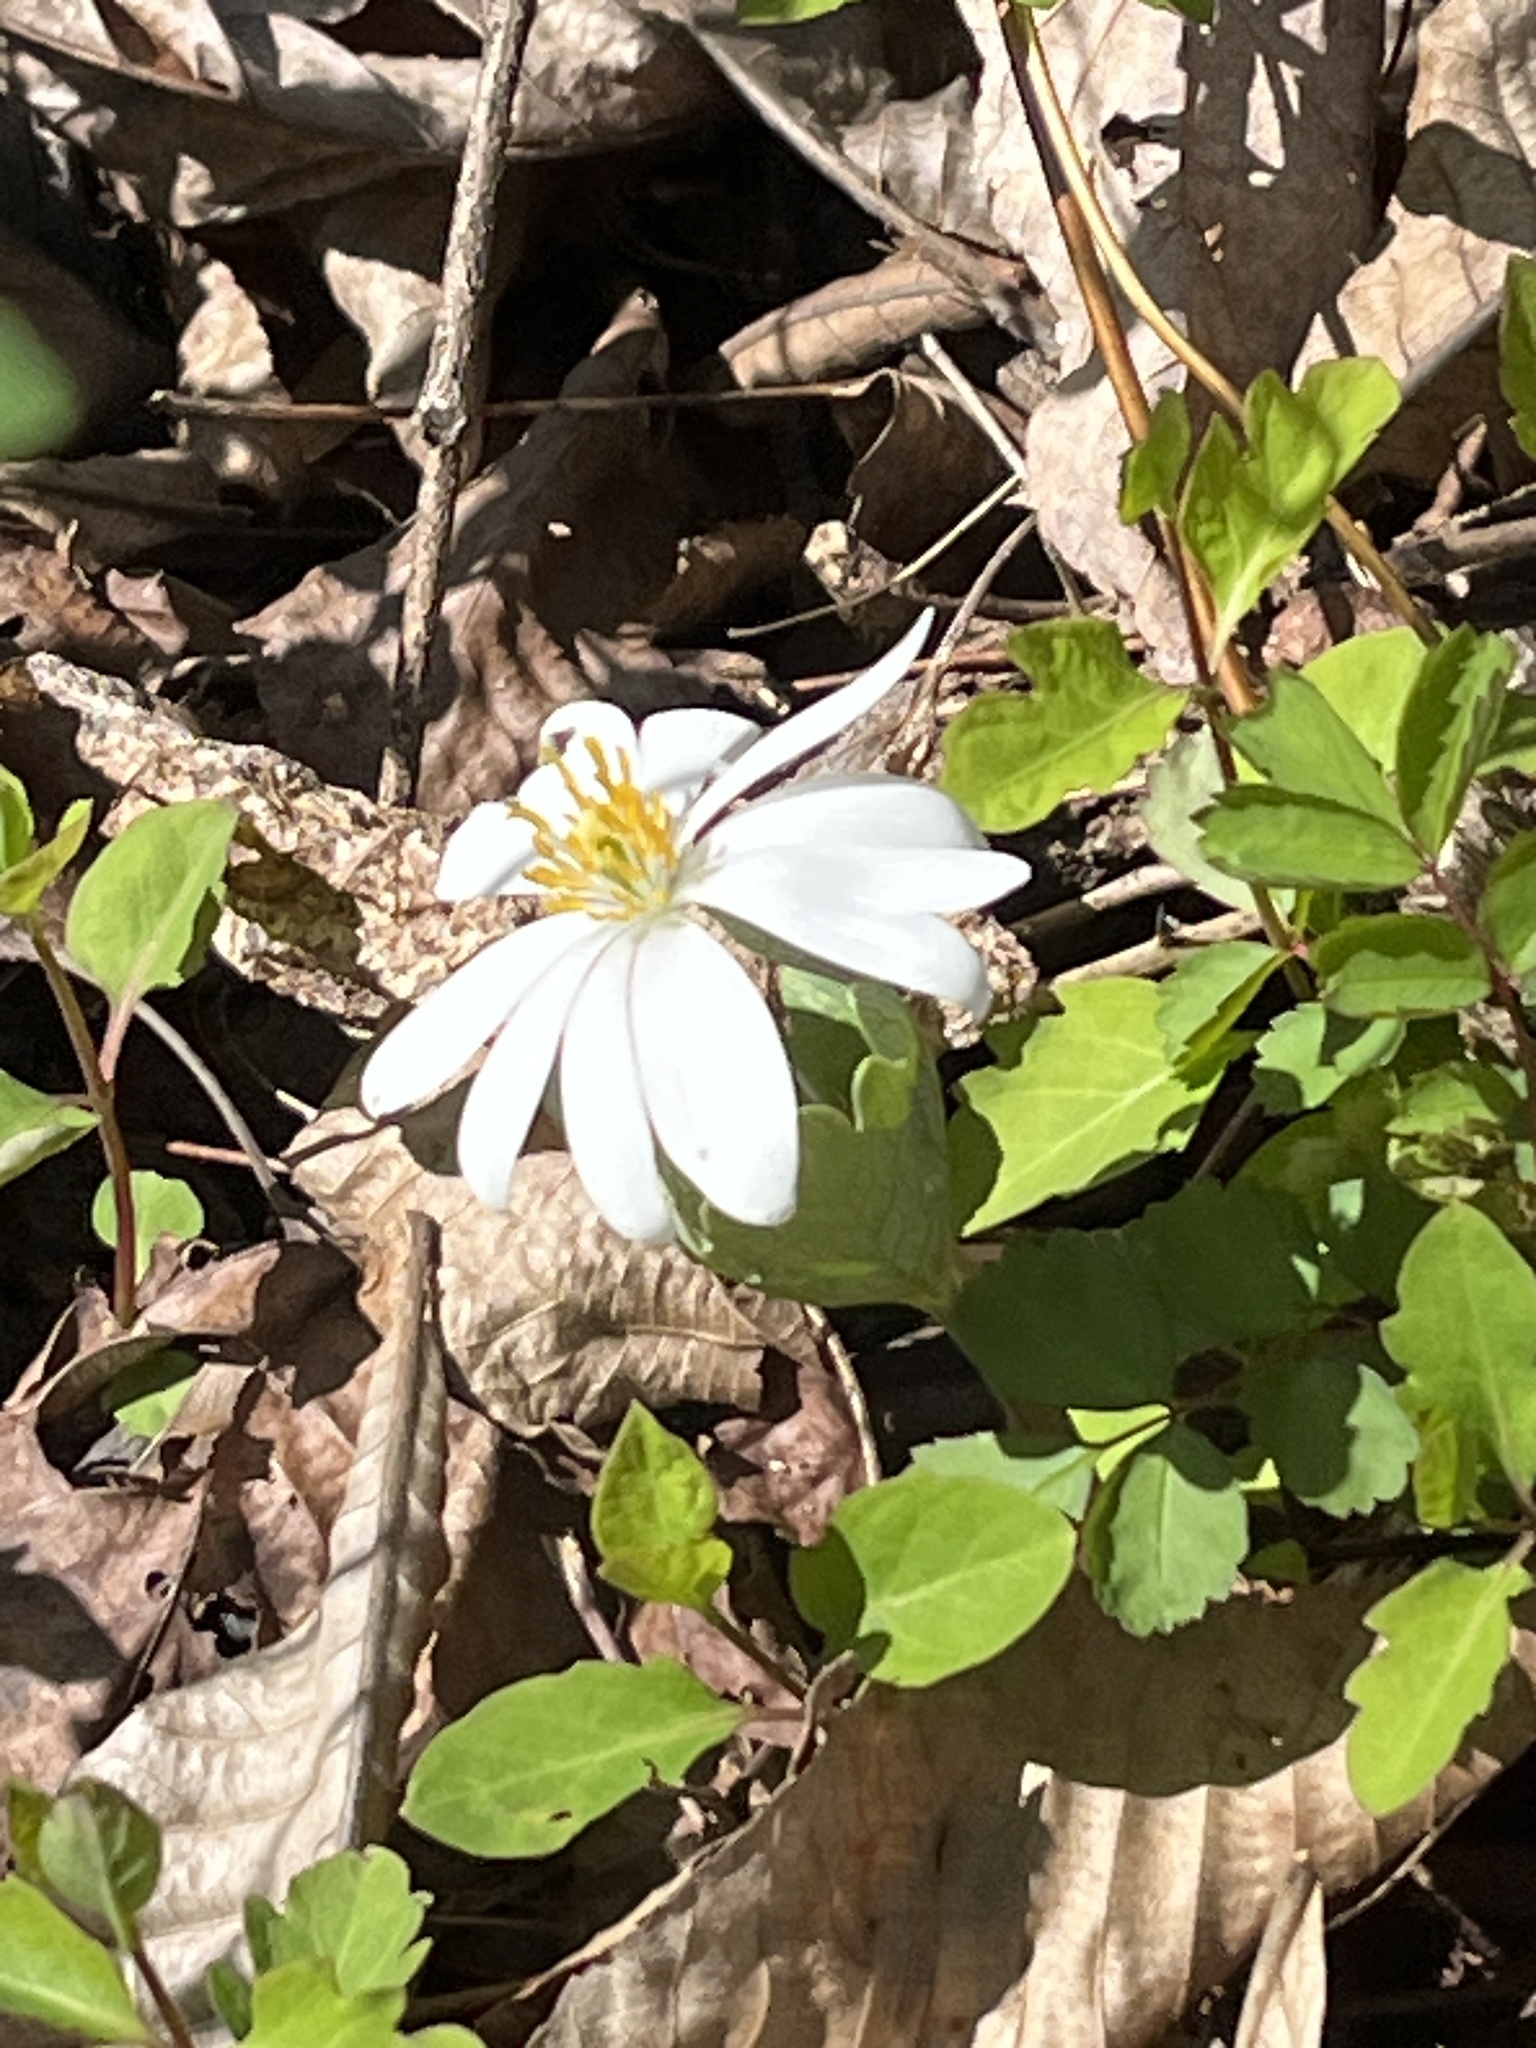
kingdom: Plantae
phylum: Tracheophyta
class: Magnoliopsida
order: Ranunculales
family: Papaveraceae
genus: Sanguinaria
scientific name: Sanguinaria canadensis
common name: Bloodroot
